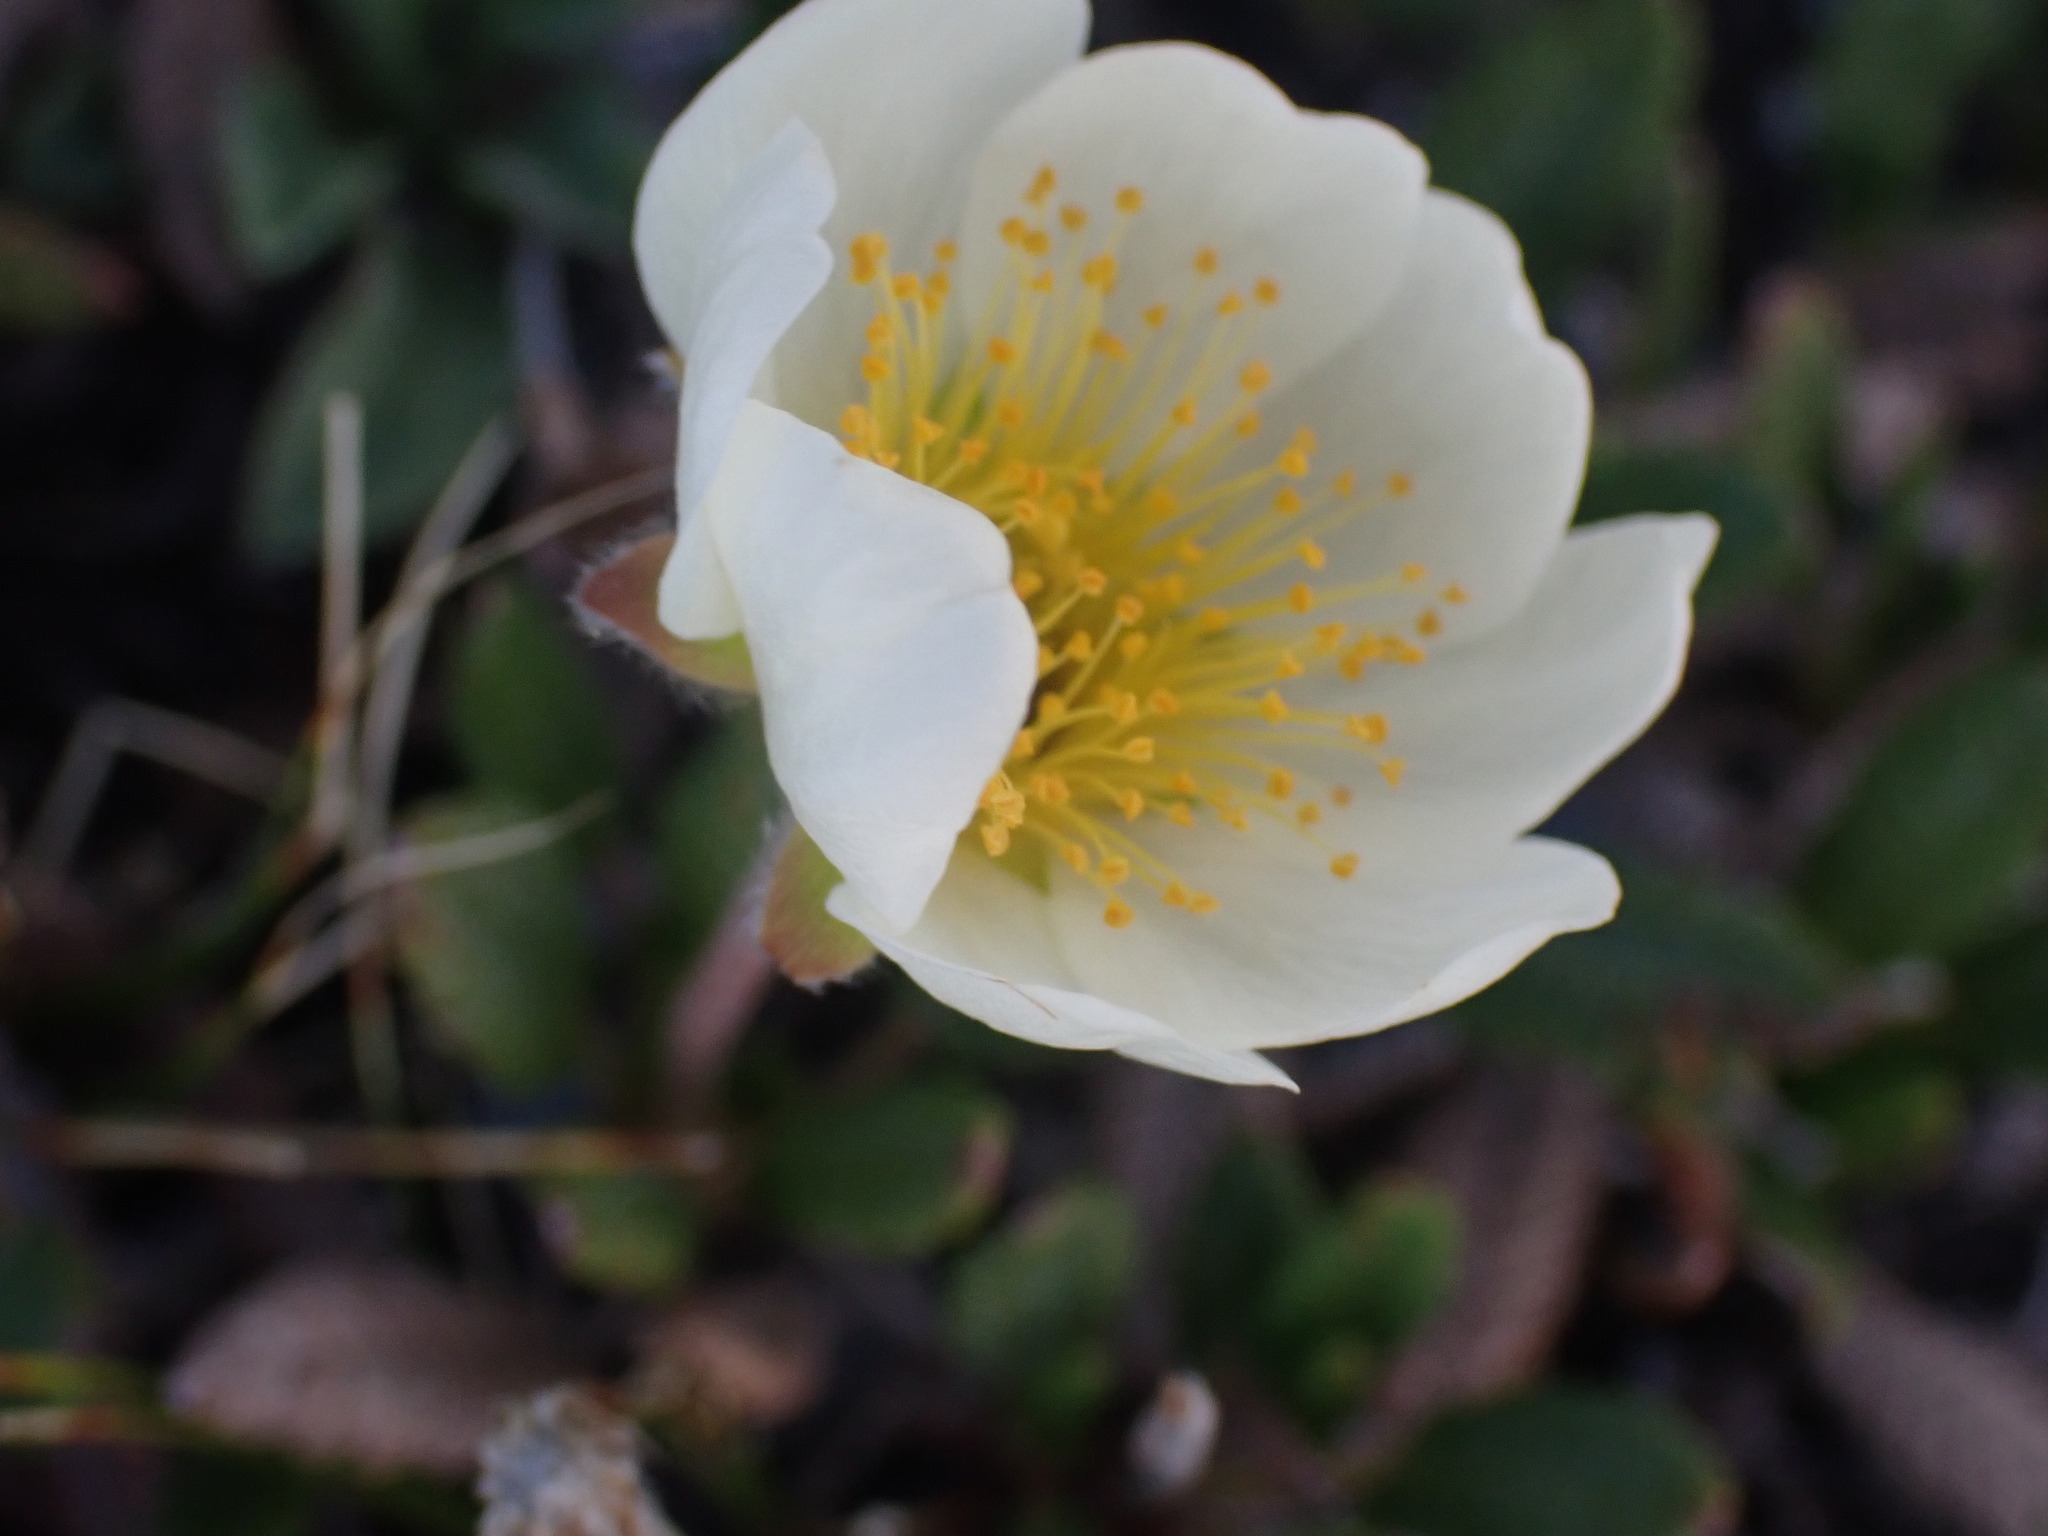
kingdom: Plantae
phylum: Tracheophyta
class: Magnoliopsida
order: Rosales
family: Rosaceae
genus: Dryas
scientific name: Dryas octopetala
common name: Eight-petal mountain-avens
